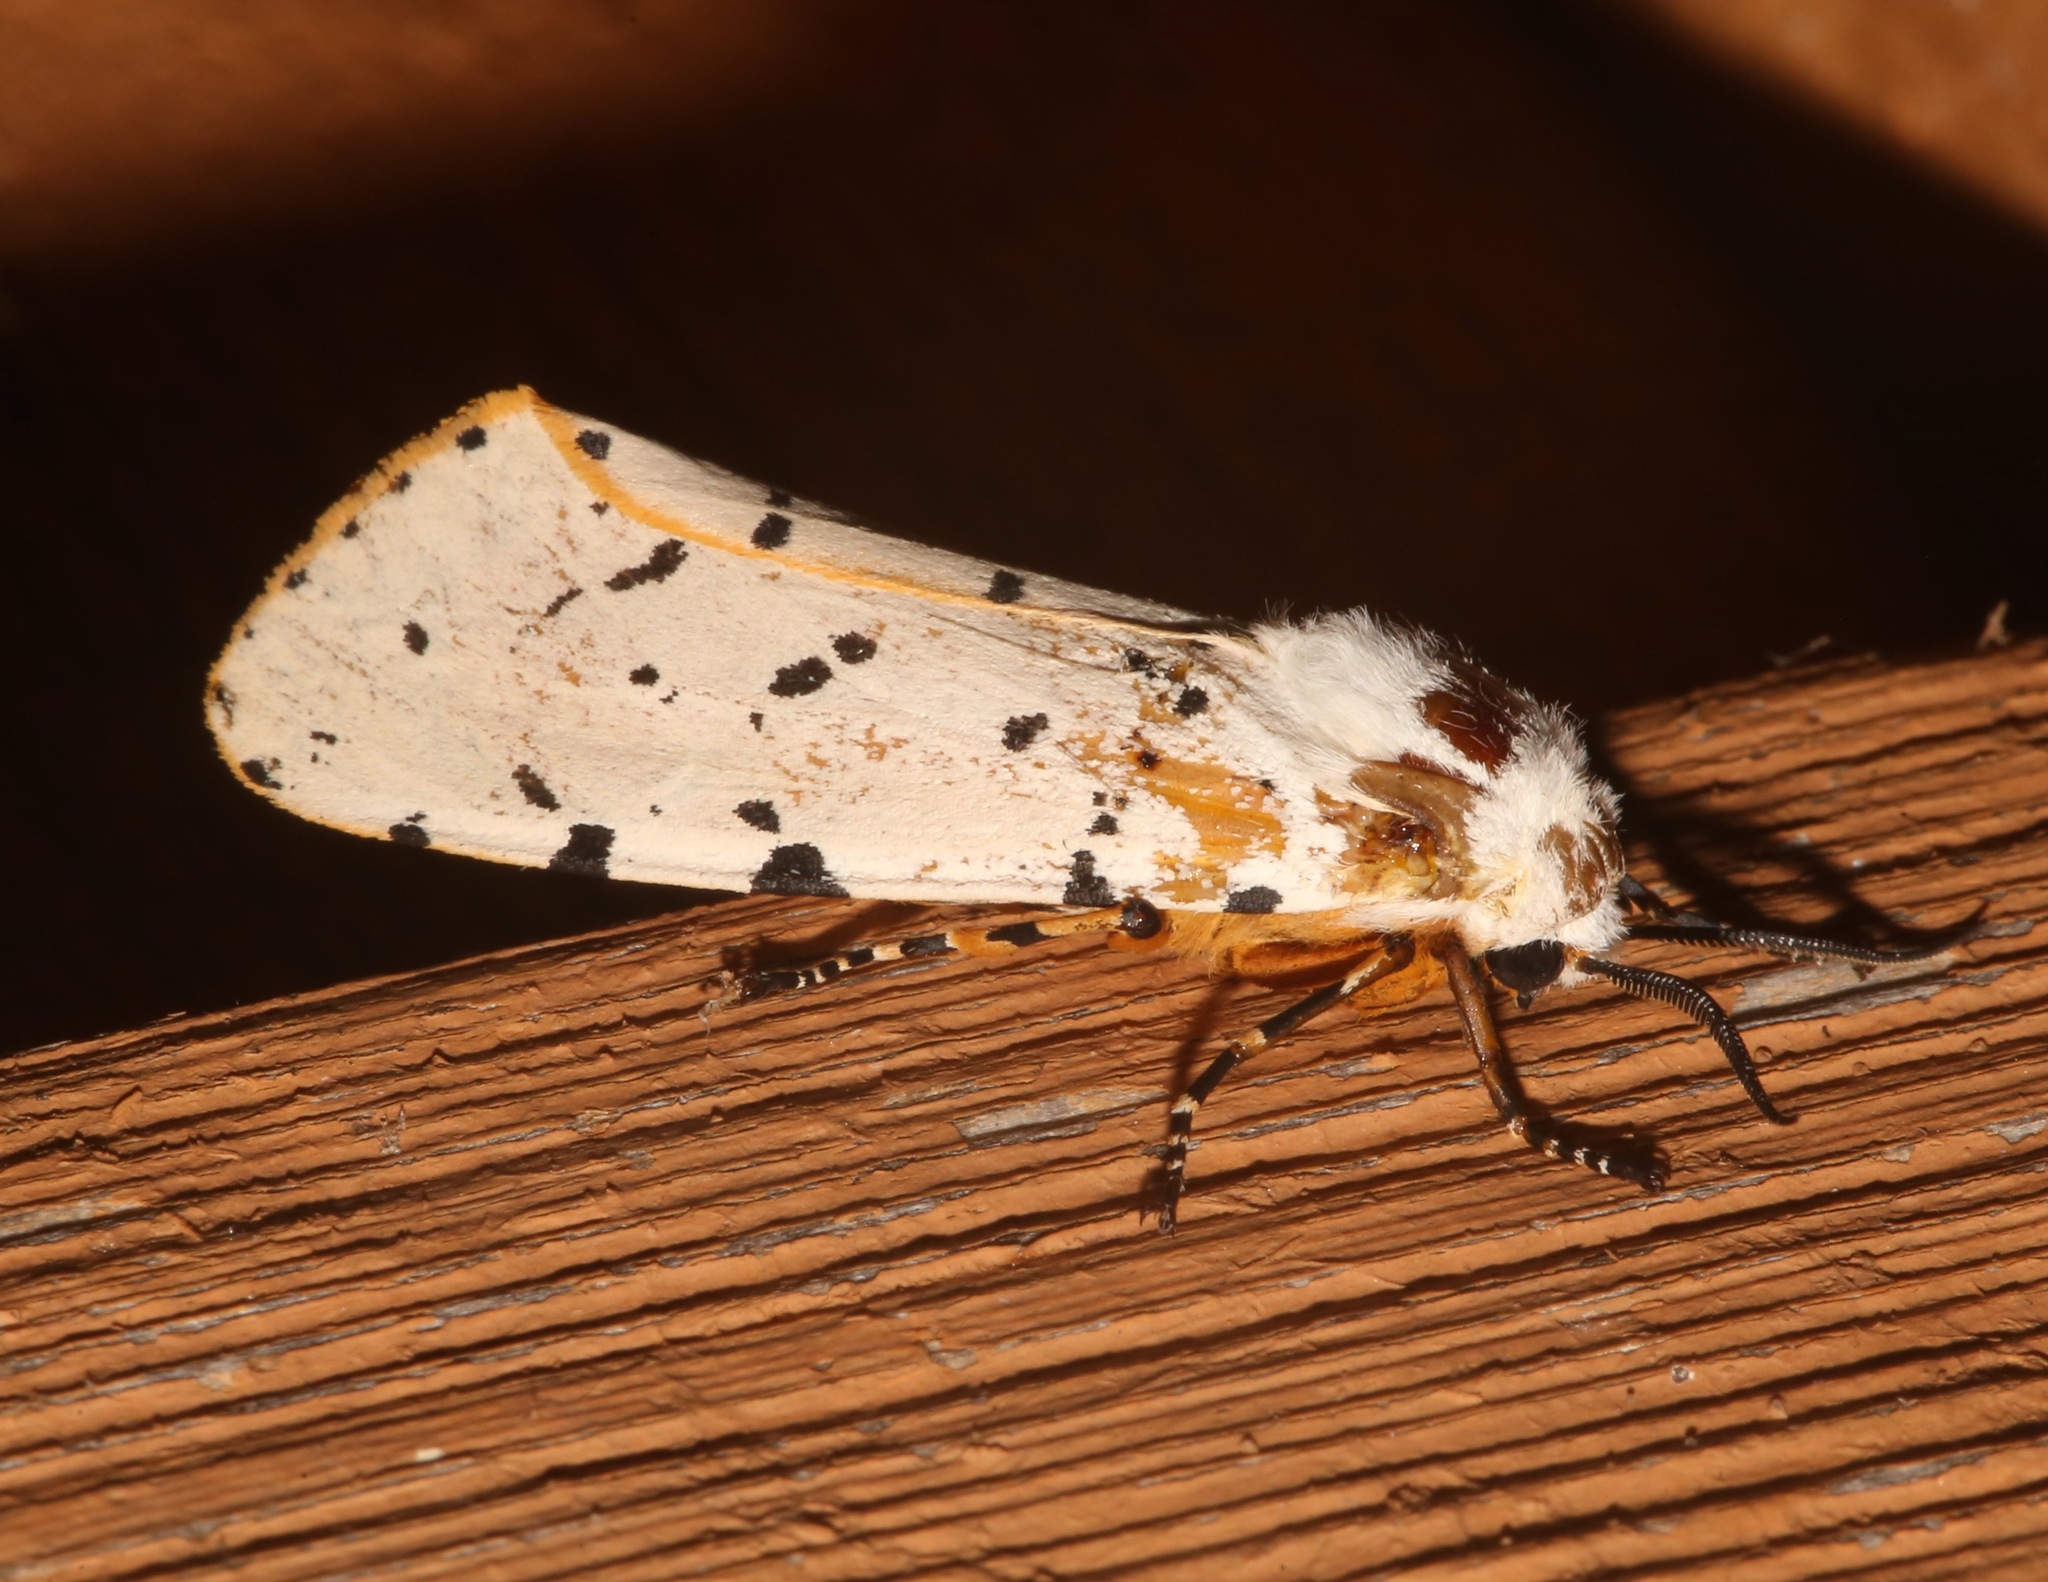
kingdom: Animalia
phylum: Arthropoda
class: Insecta
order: Lepidoptera
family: Erebidae
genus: Estigmene
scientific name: Estigmene acrea
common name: Salt marsh moth
